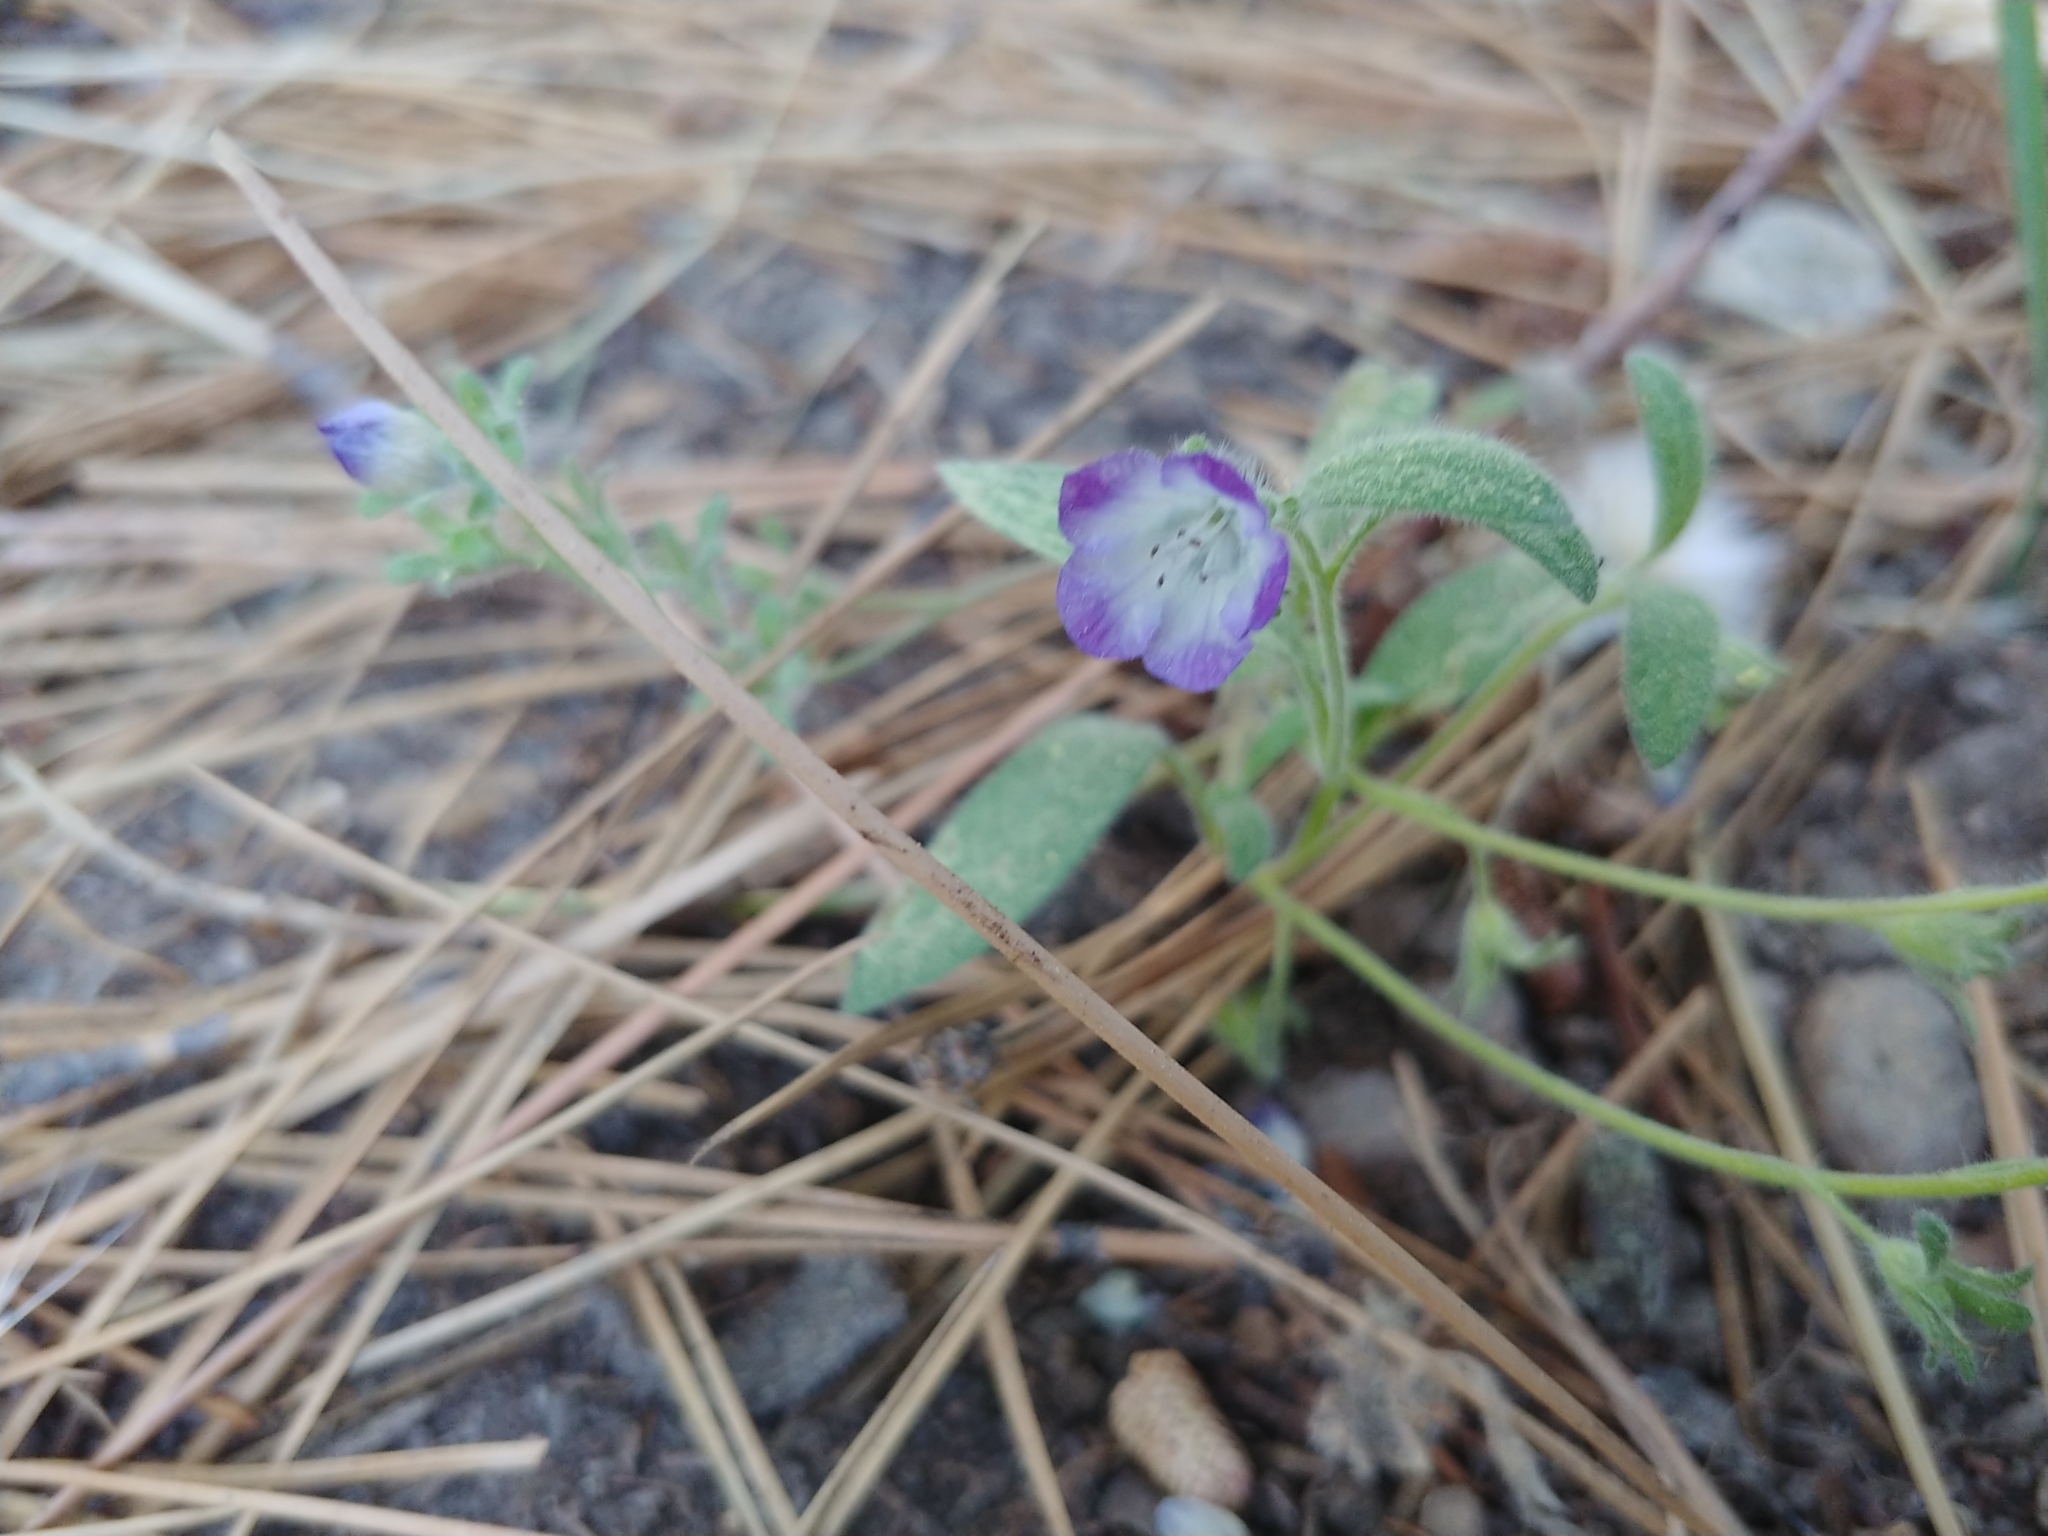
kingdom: Plantae
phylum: Tracheophyta
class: Magnoliopsida
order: Boraginales
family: Hydrophyllaceae
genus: Phacelia
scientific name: Phacelia davidsonii
